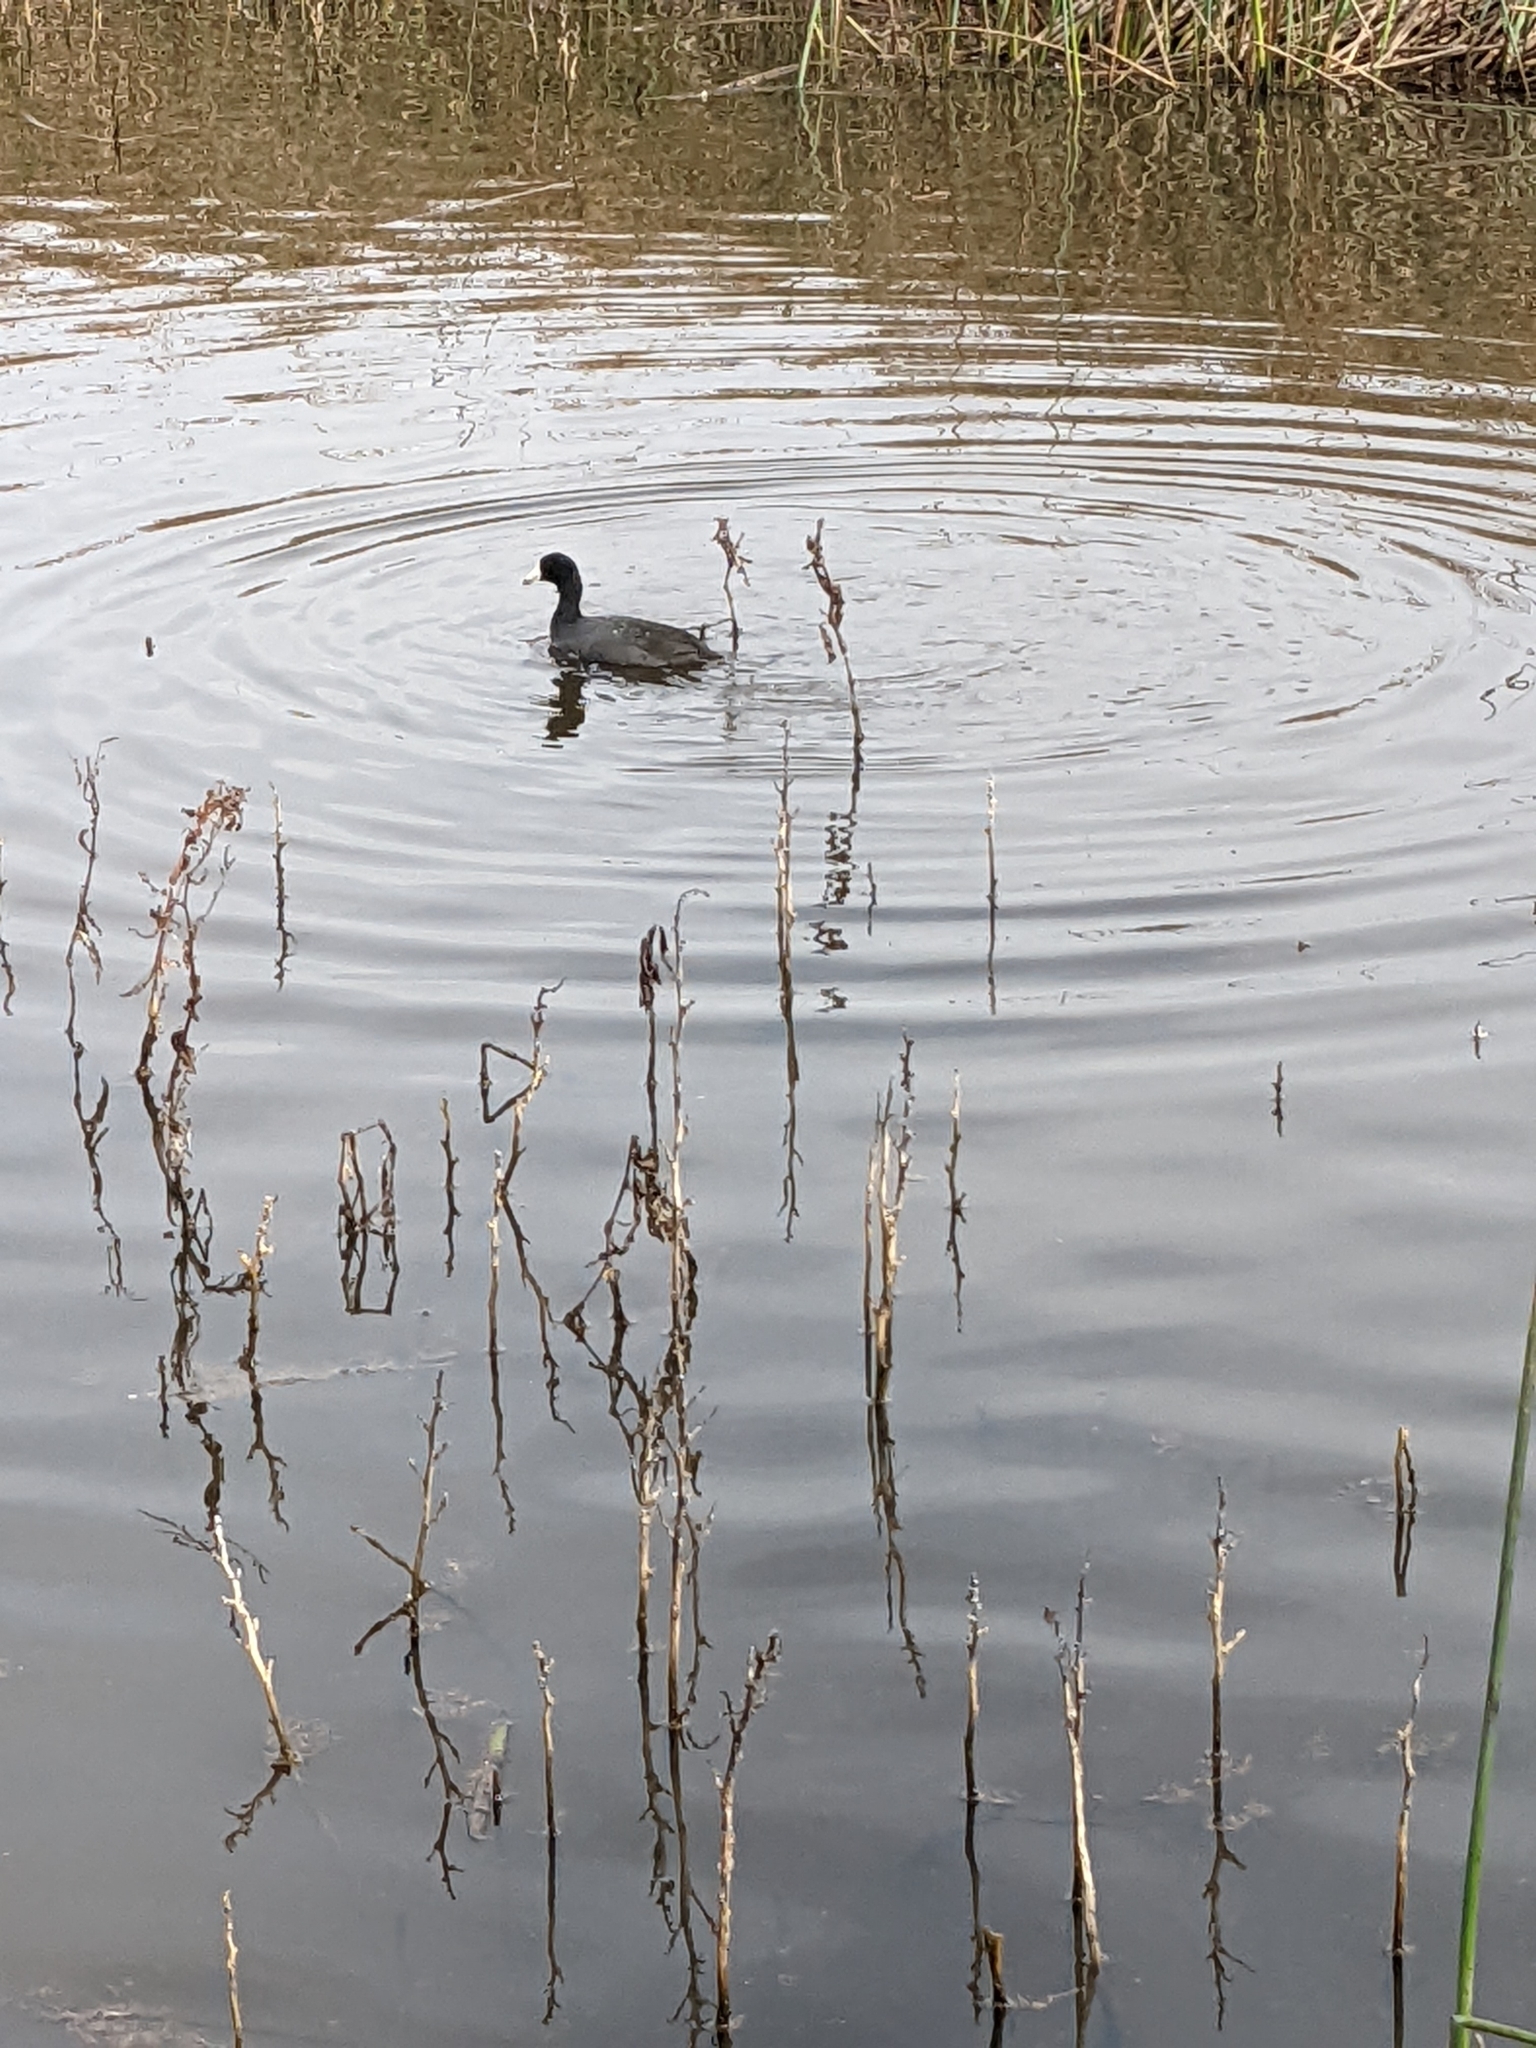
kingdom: Animalia
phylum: Chordata
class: Aves
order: Gruiformes
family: Rallidae
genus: Fulica
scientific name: Fulica americana
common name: American coot
